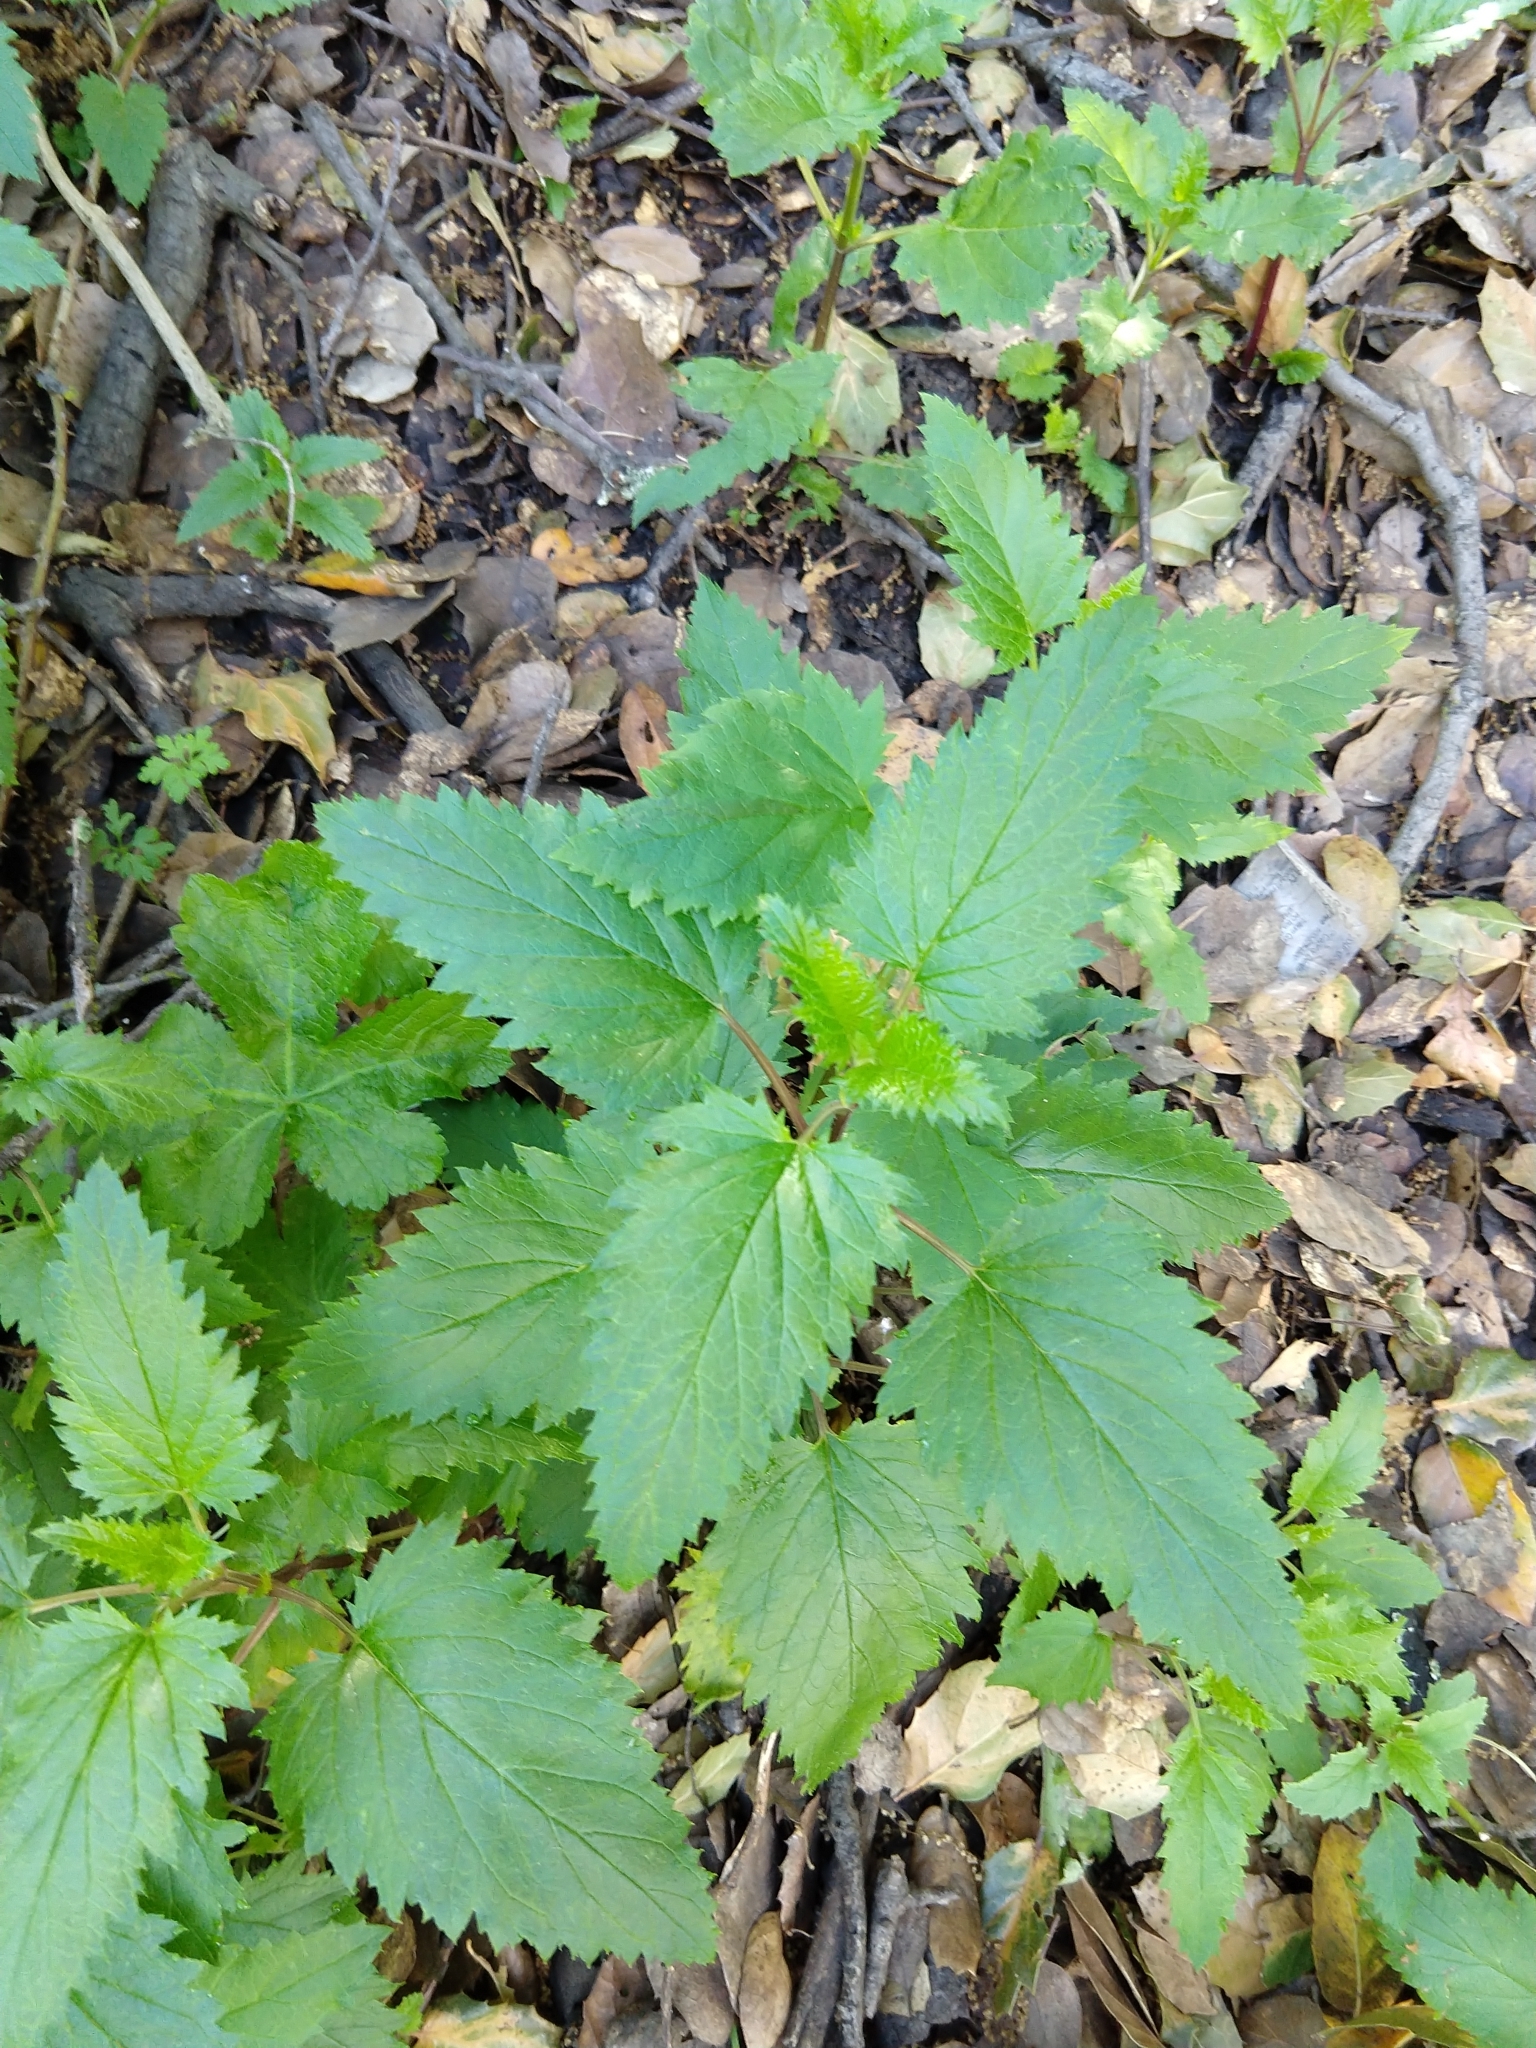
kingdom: Plantae
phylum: Tracheophyta
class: Magnoliopsida
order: Lamiales
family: Scrophulariaceae
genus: Scrophularia
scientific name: Scrophularia californica
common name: California figwort
